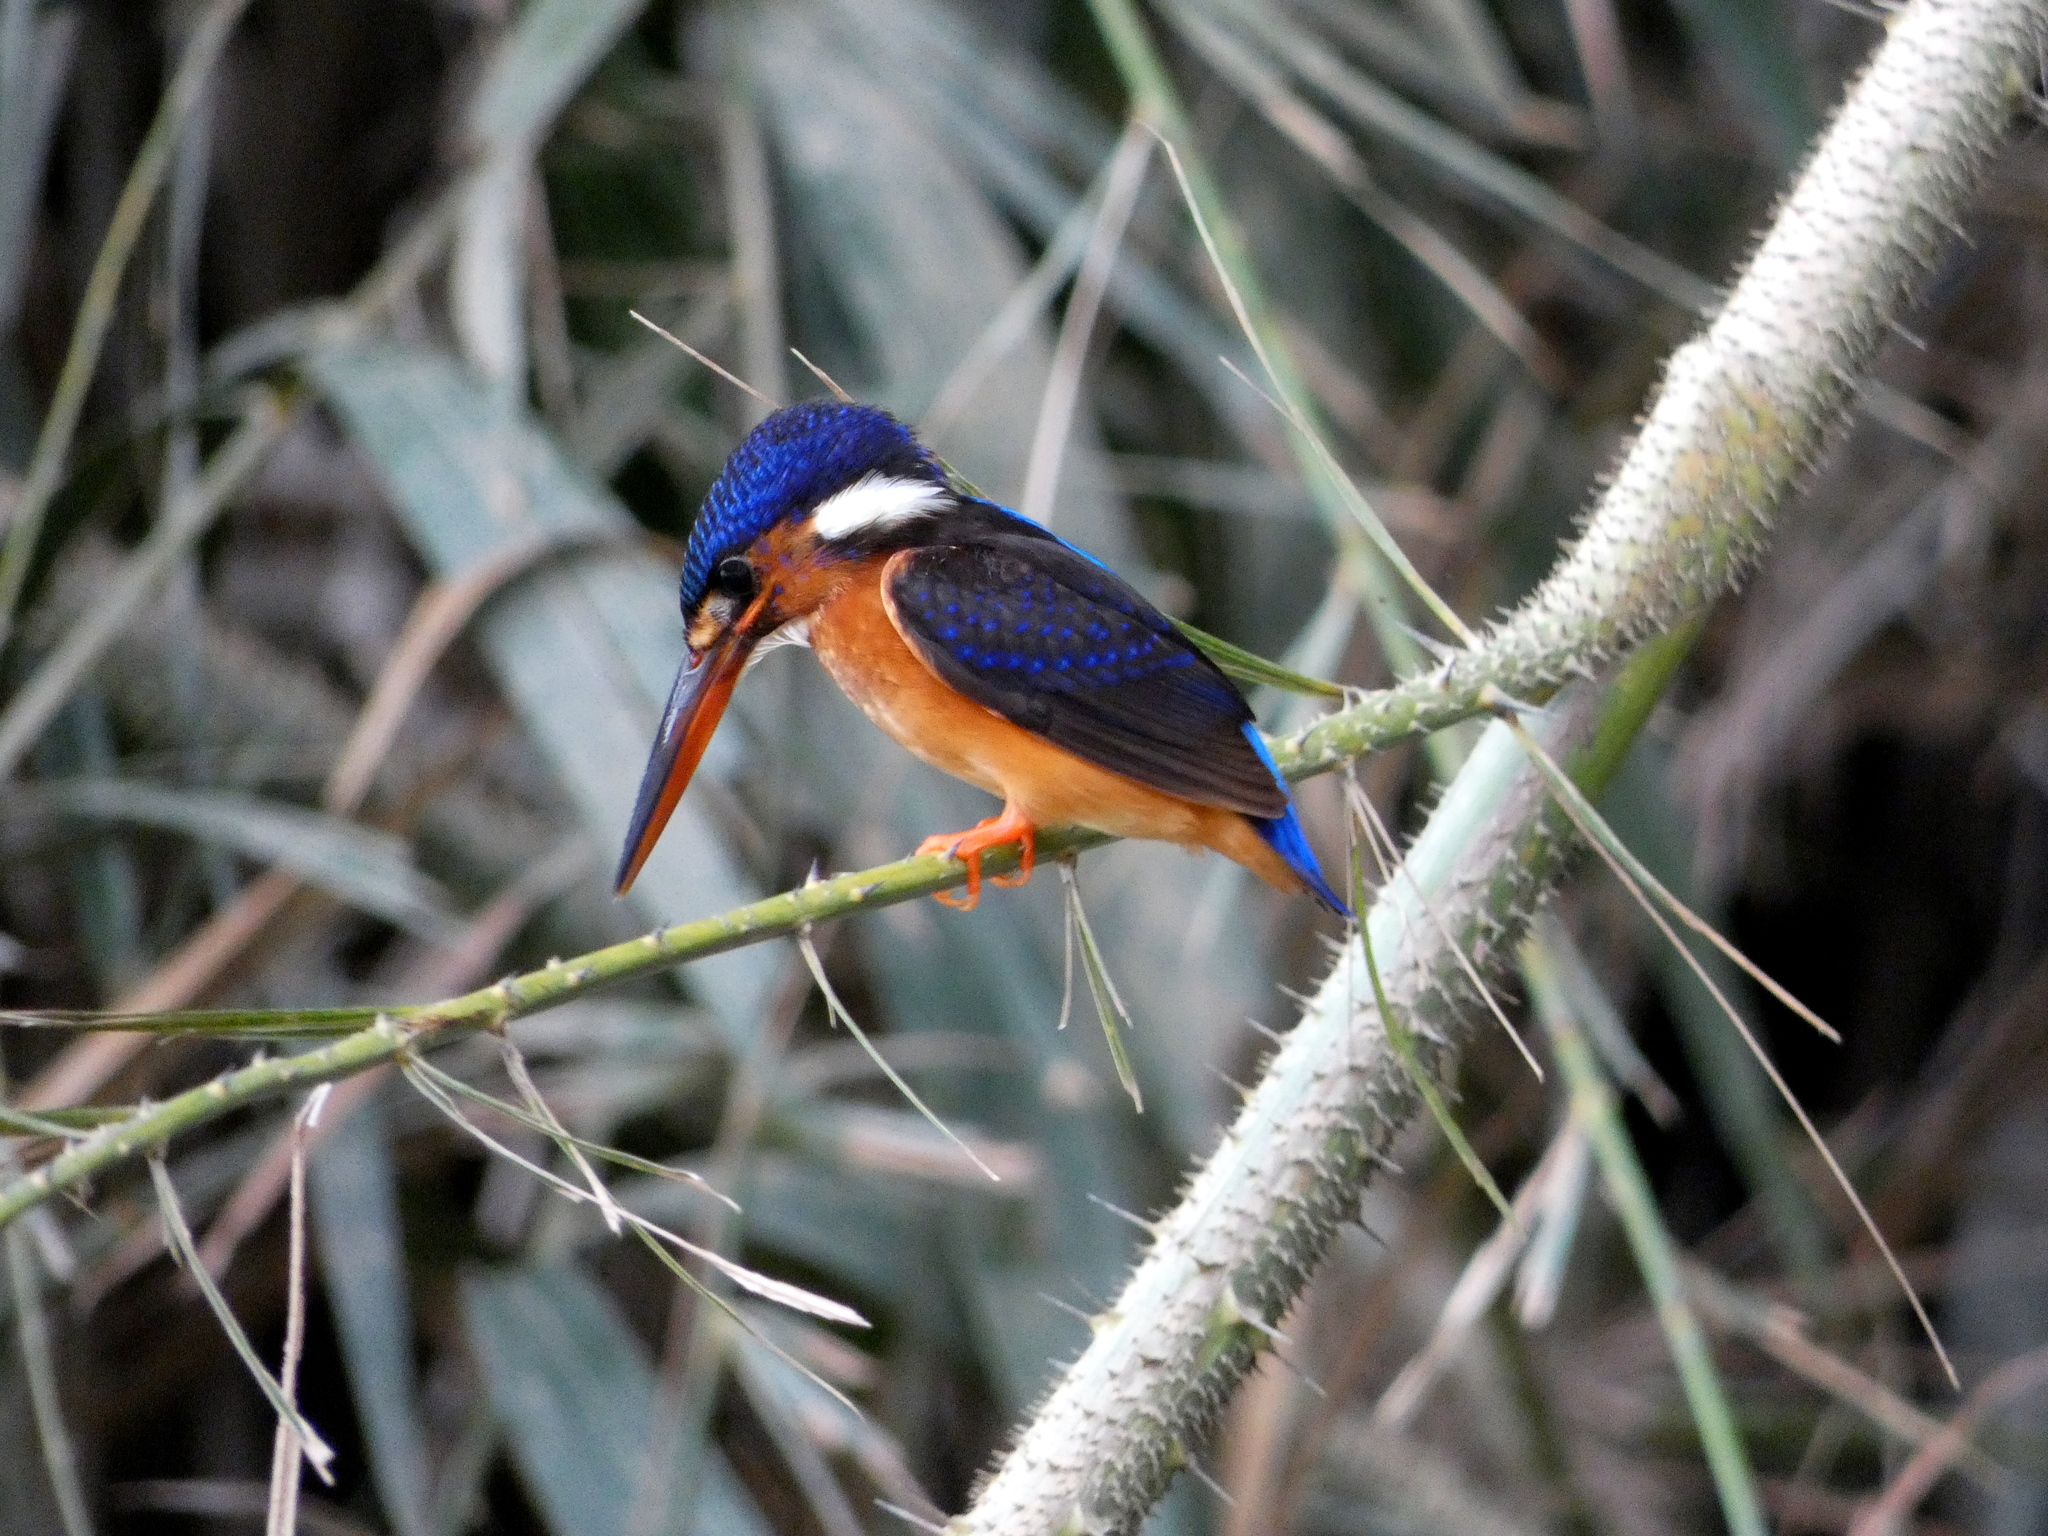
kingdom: Animalia
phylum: Chordata
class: Aves
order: Coraciiformes
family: Alcedinidae
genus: Alcedo
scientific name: Alcedo meninting
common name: Blue-eared kingfisher
